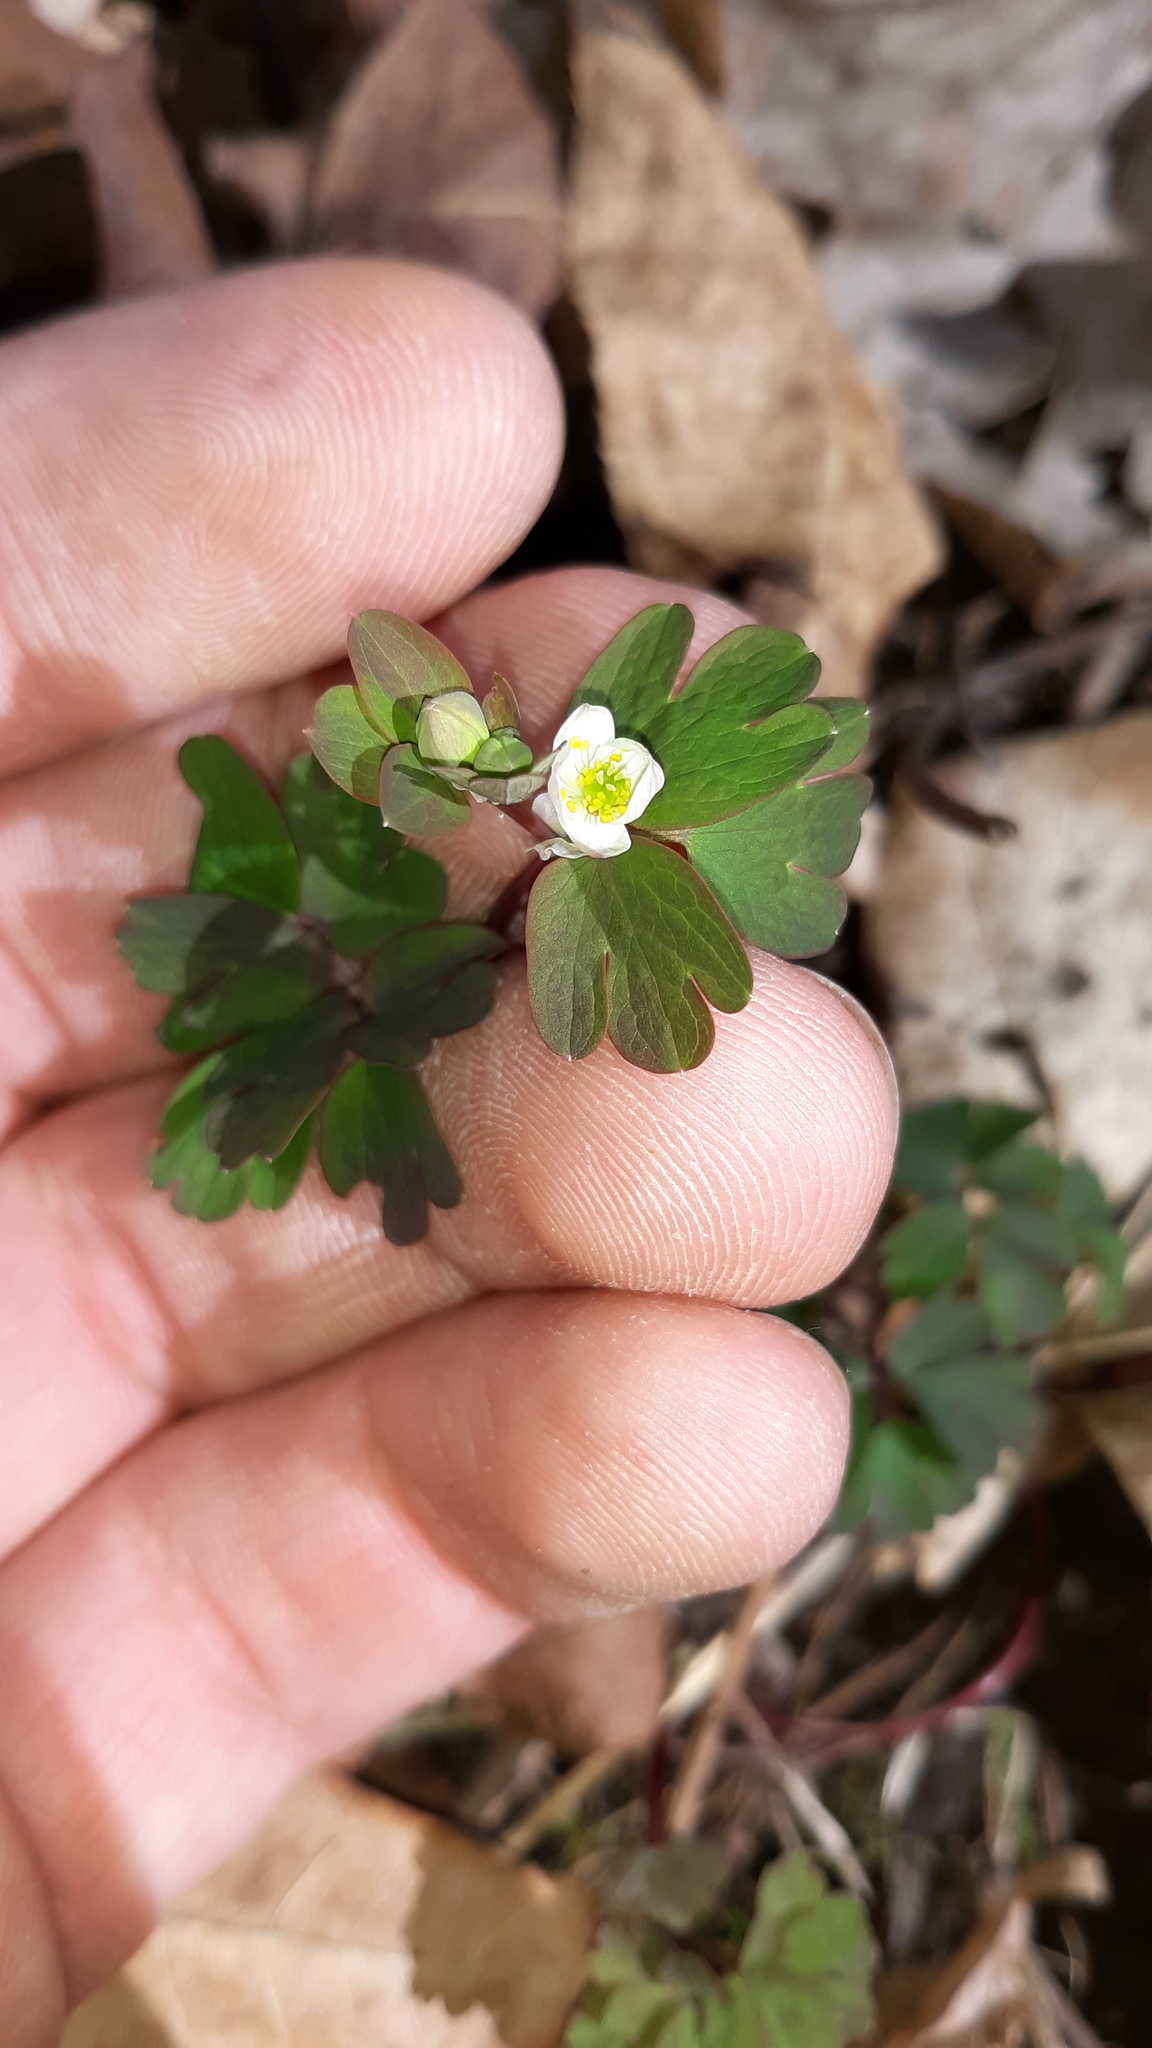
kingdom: Plantae
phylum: Tracheophyta
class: Magnoliopsida
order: Ranunculales
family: Ranunculaceae
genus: Enemion
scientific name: Enemion biternatum
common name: Eastern false rue-anemone
